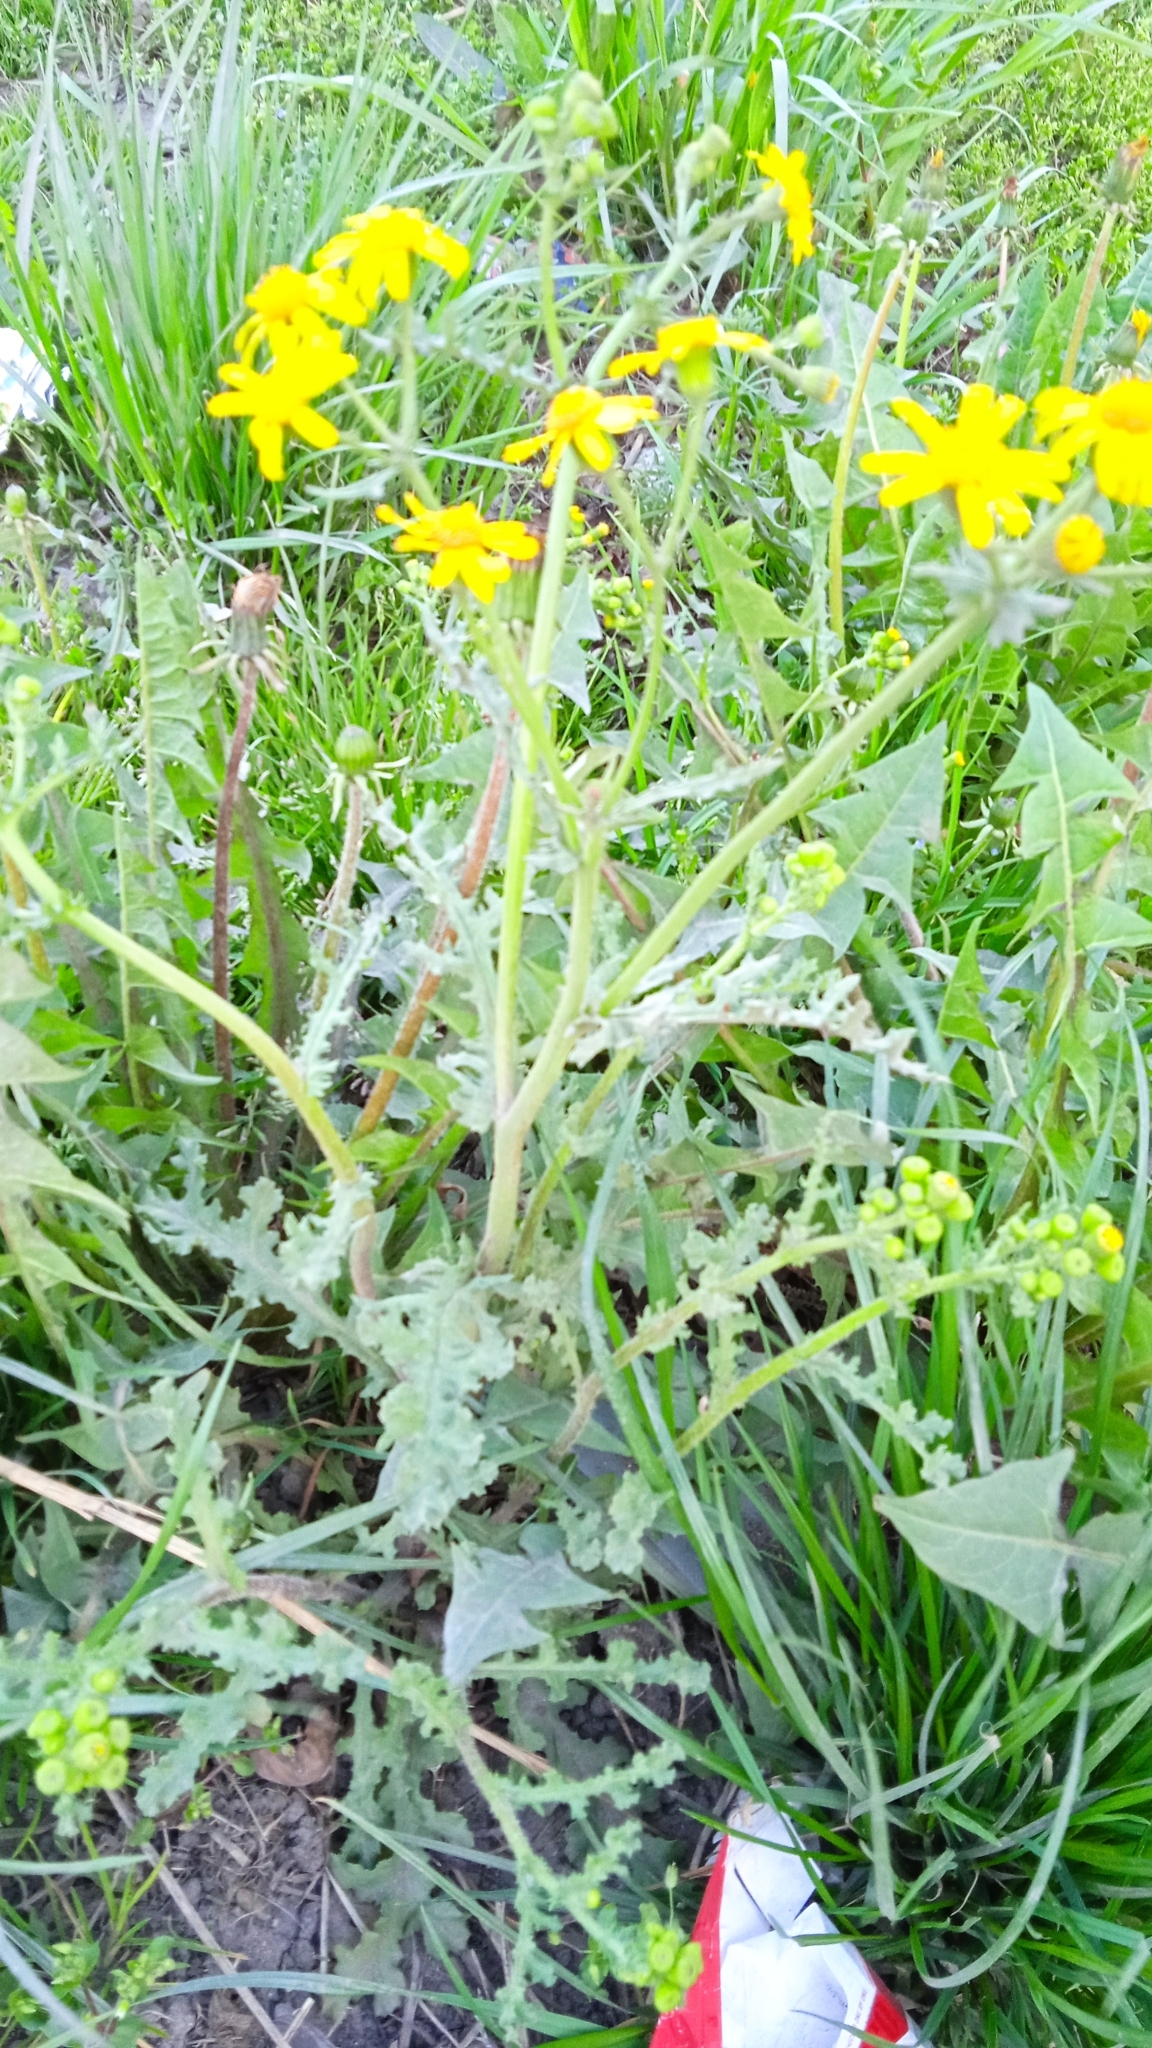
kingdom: Plantae
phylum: Tracheophyta
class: Magnoliopsida
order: Asterales
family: Asteraceae
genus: Senecio
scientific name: Senecio vernalis
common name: Eastern groundsel
